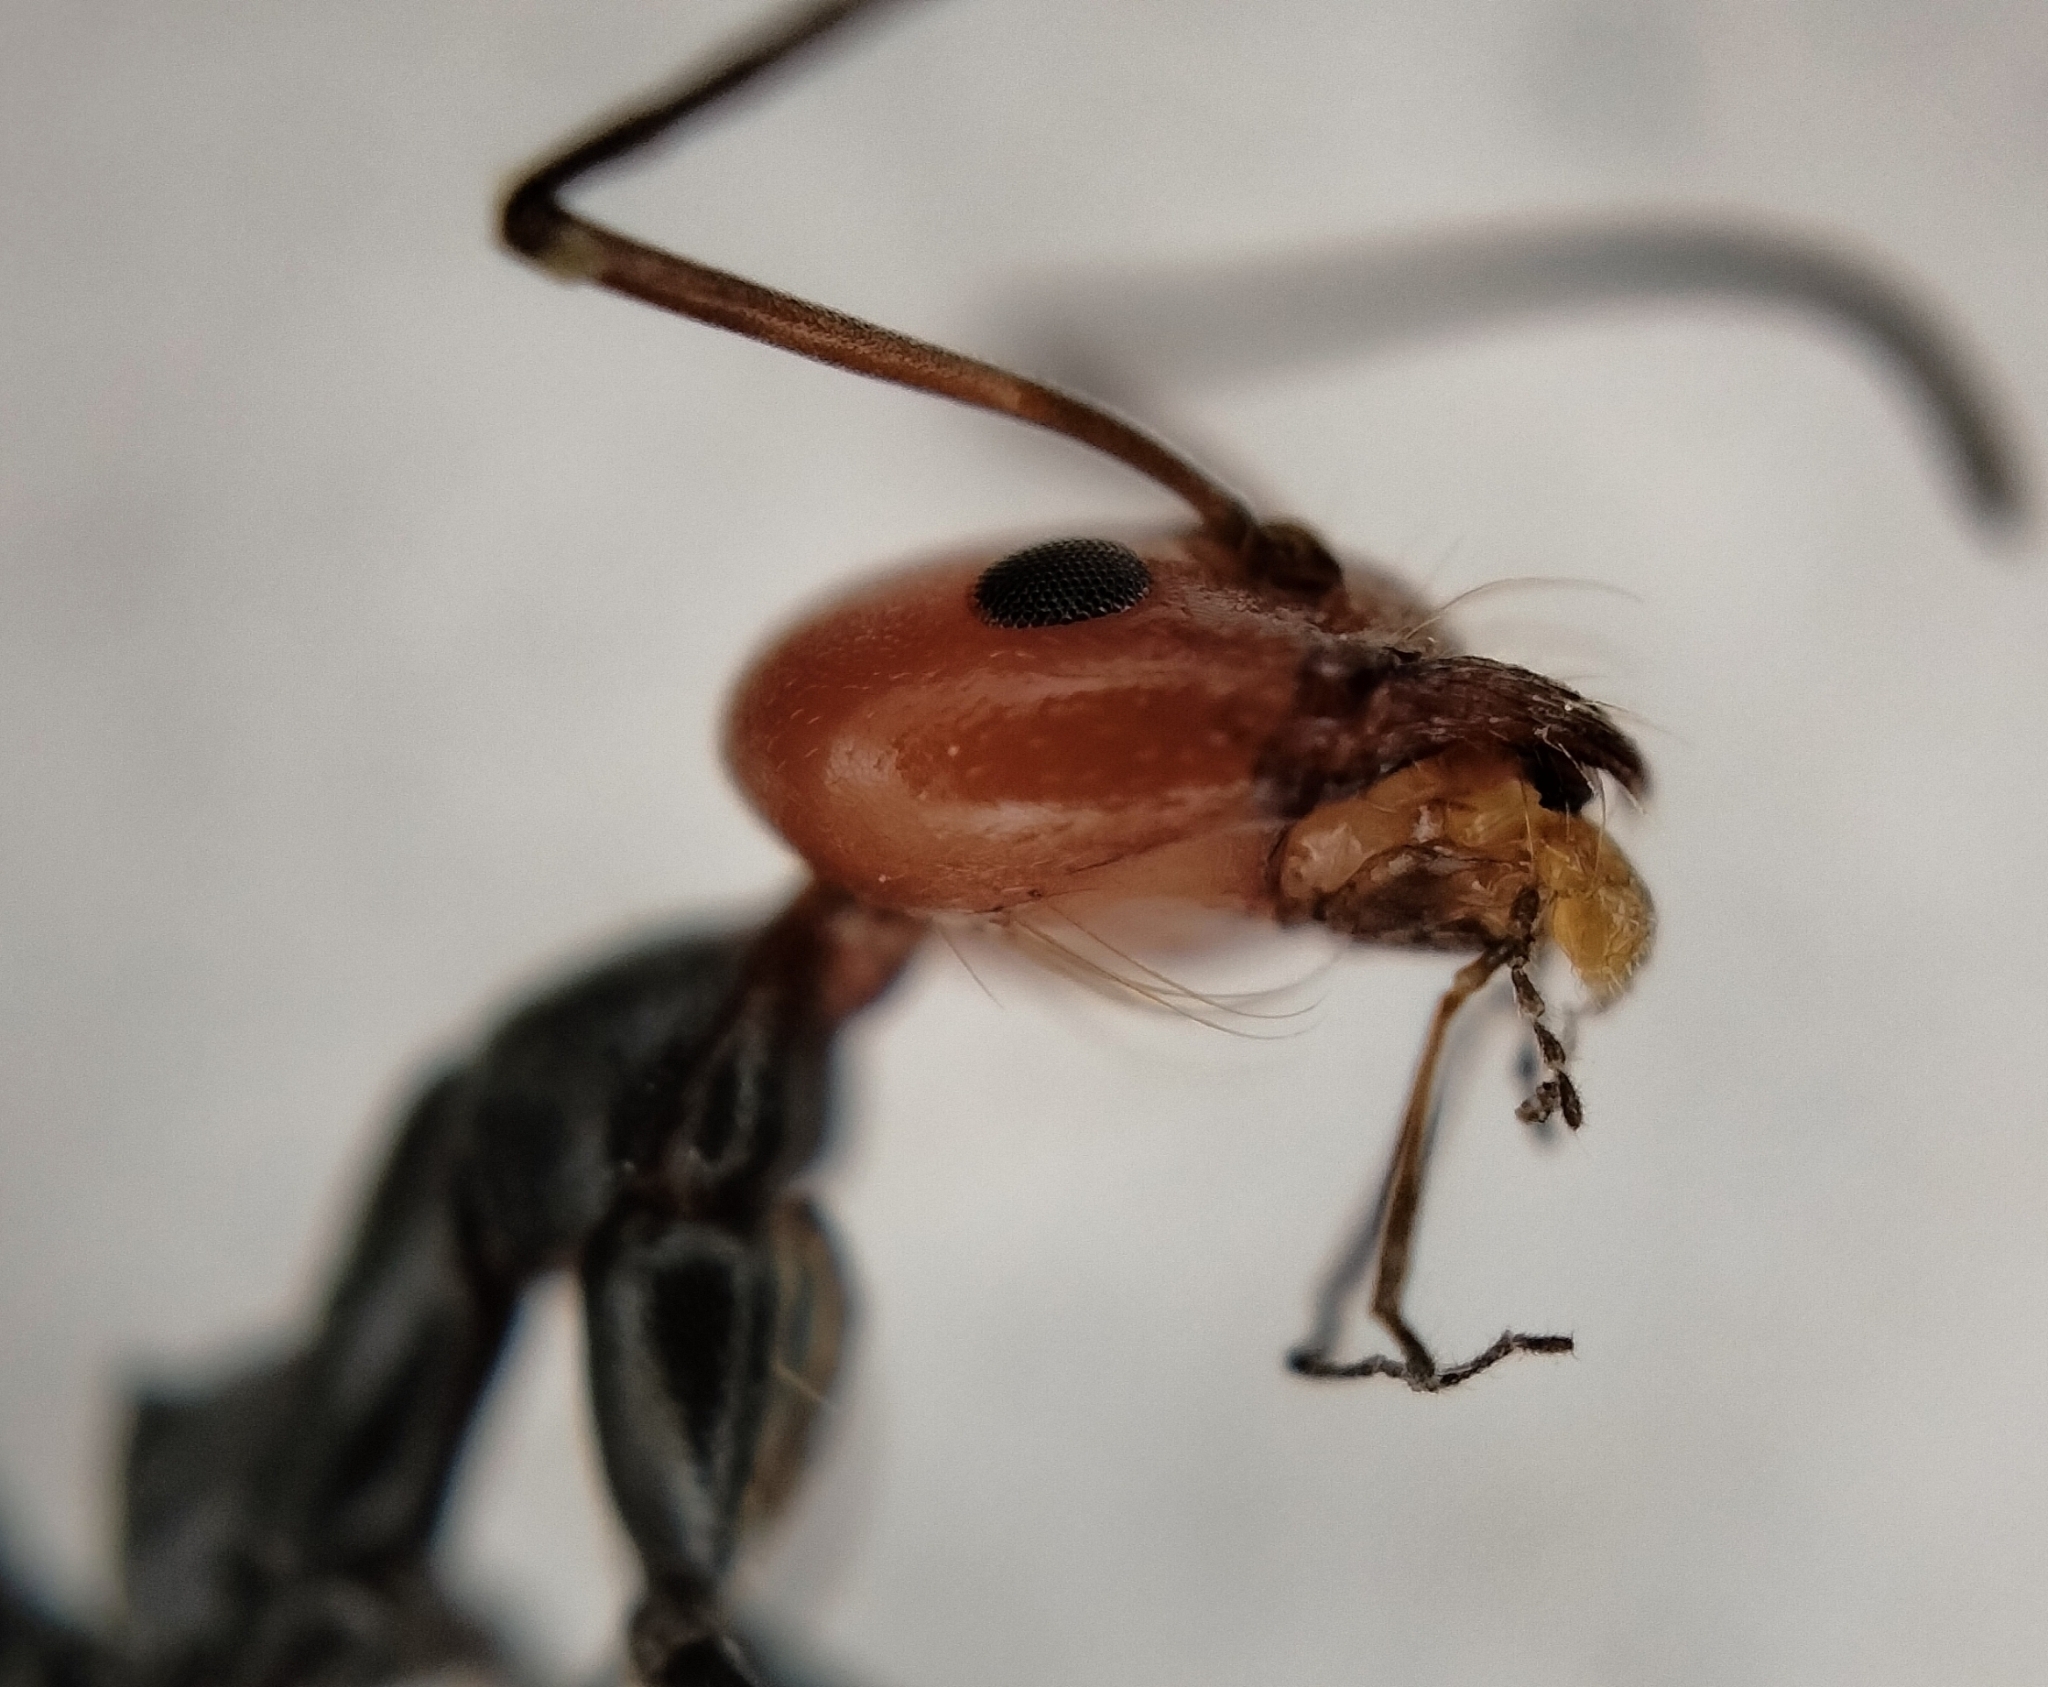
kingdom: Animalia
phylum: Arthropoda
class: Insecta
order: Hymenoptera
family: Formicidae
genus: Dorymyrmex
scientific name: Dorymyrmex goetschi
